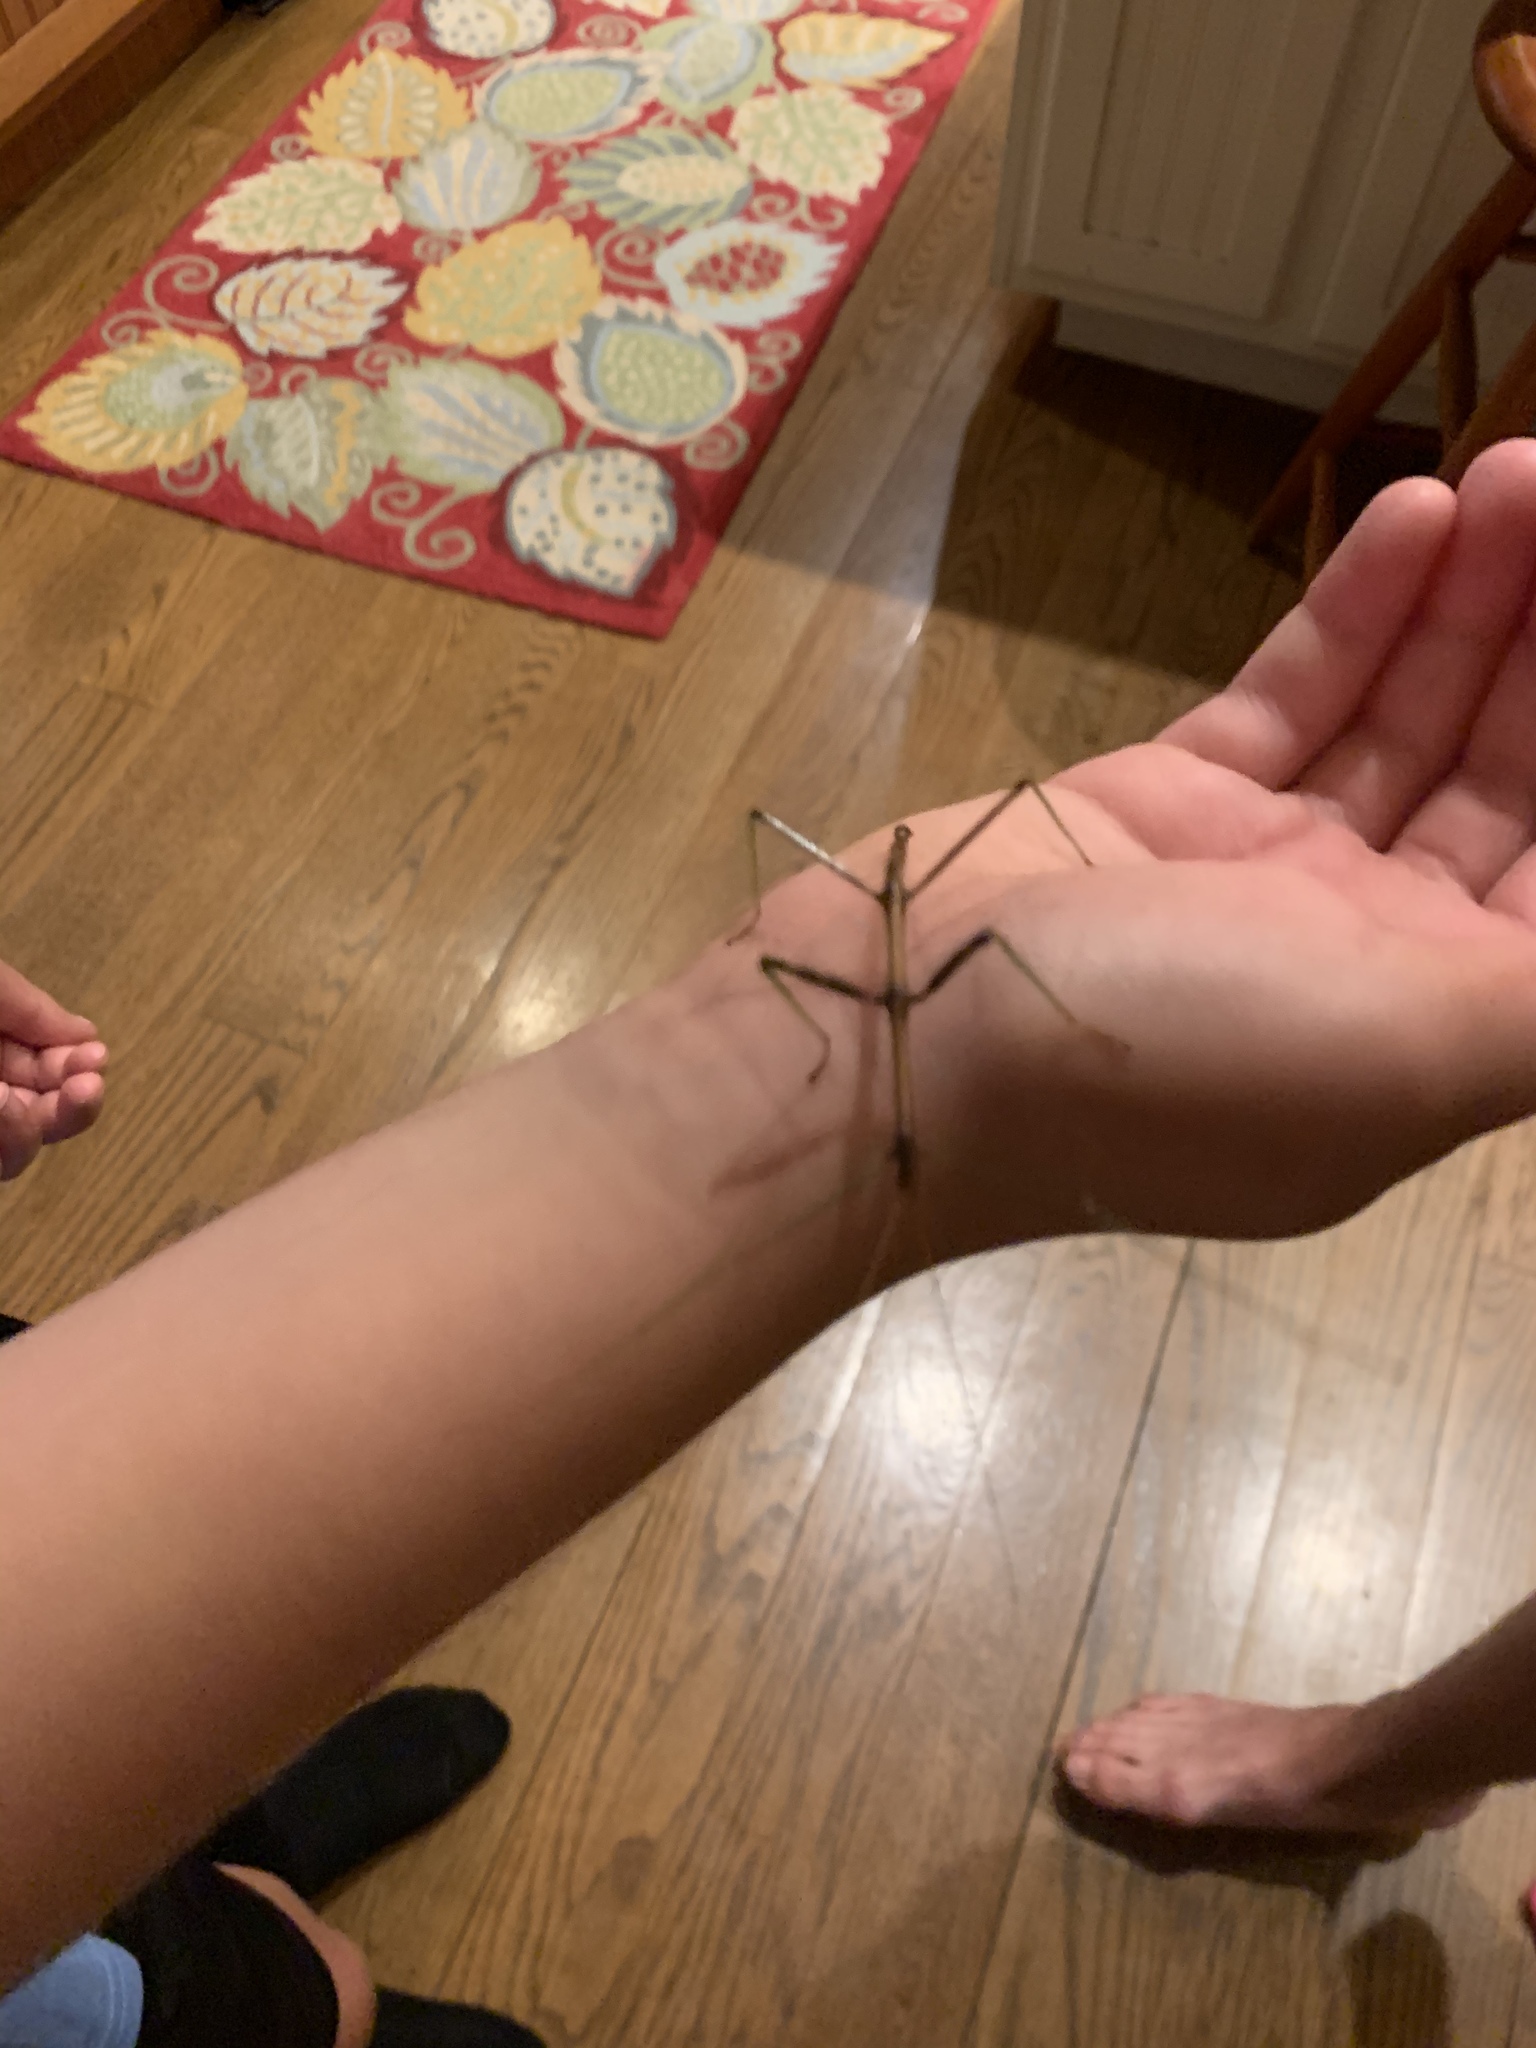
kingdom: Animalia
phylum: Arthropoda
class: Insecta
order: Phasmida
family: Diapheromeridae
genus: Diapheromera
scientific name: Diapheromera femorata
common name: Common american walkingstick
